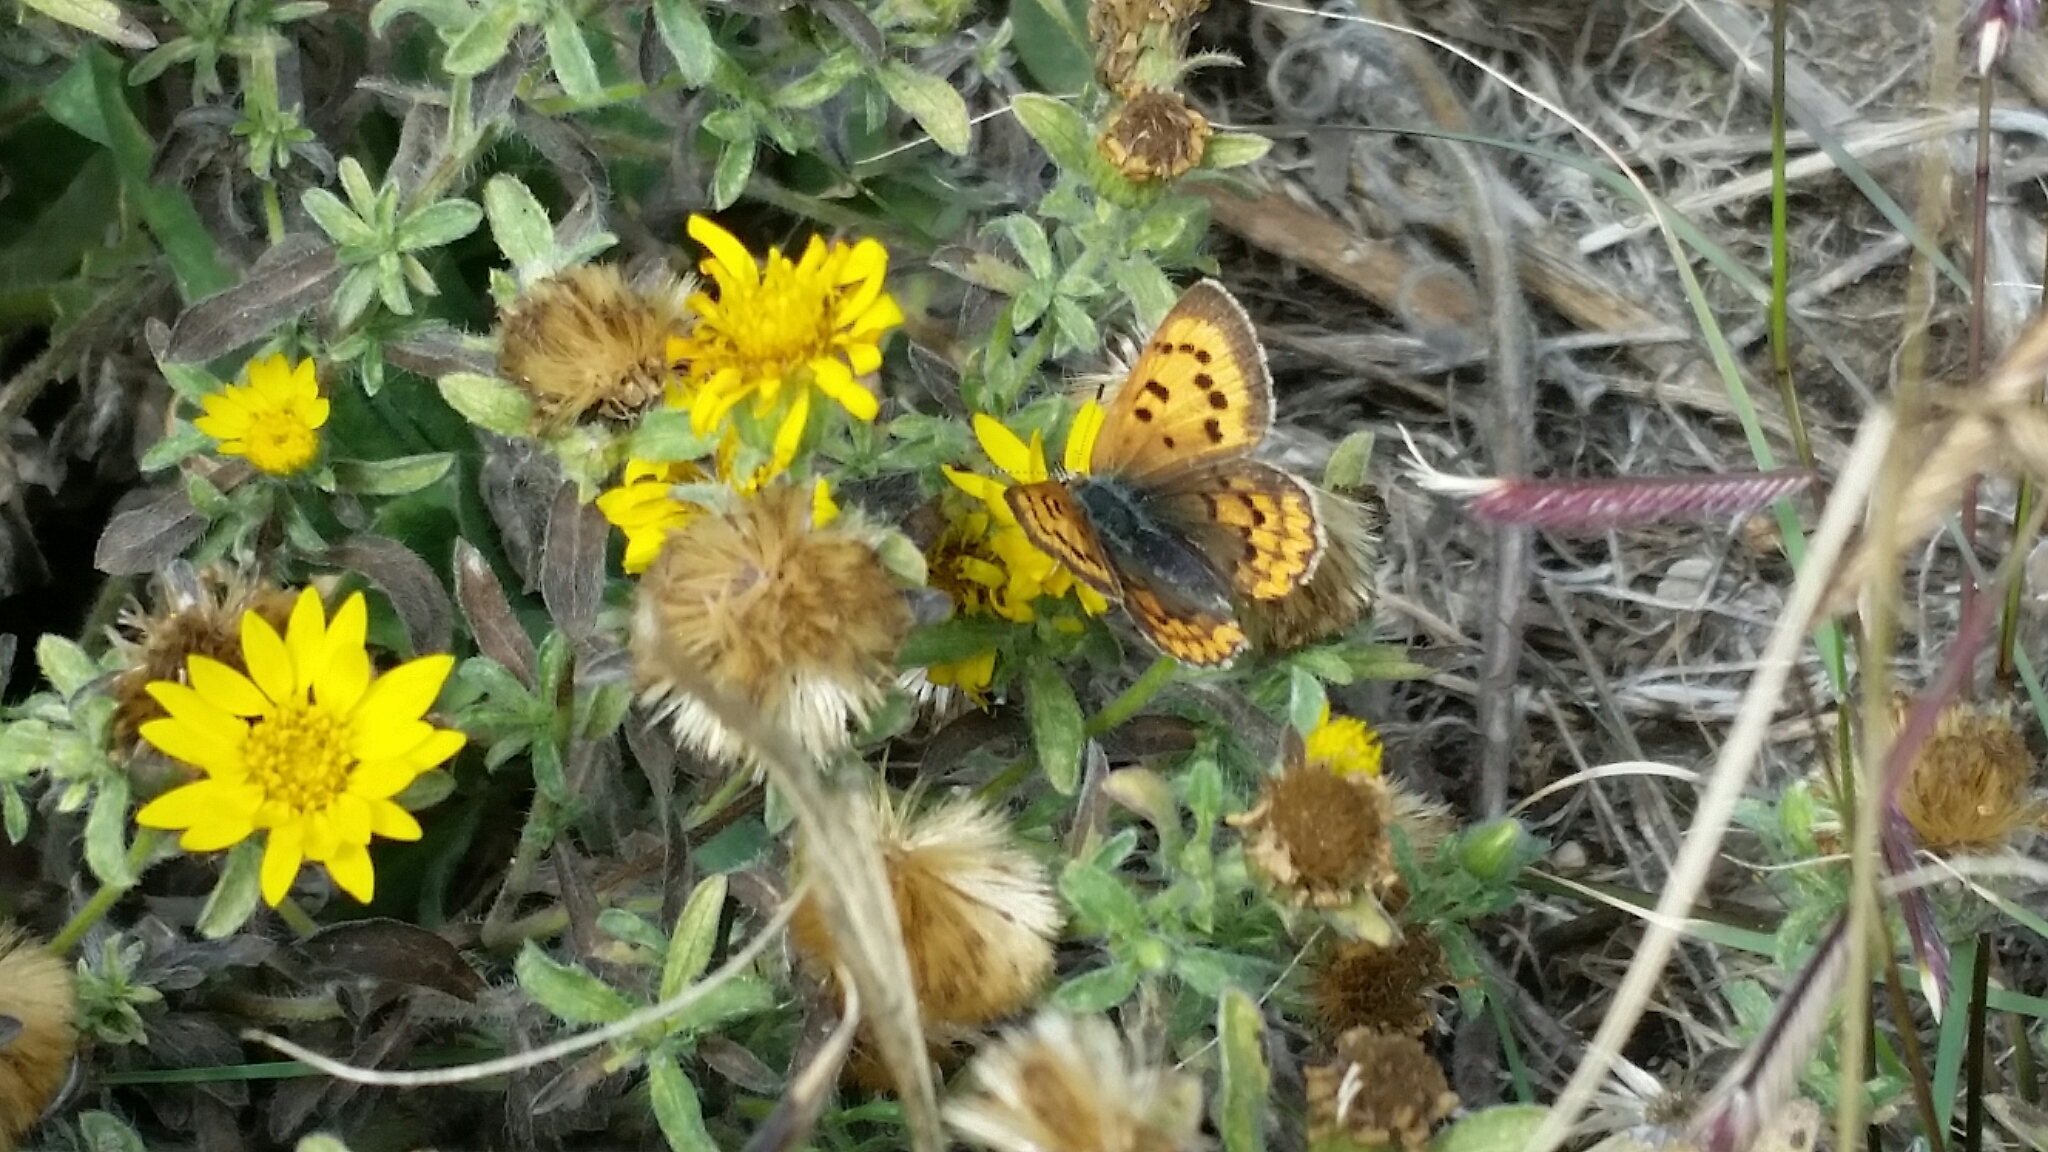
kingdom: Animalia
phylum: Arthropoda
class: Insecta
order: Lepidoptera
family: Lycaenidae
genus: Tharsalea
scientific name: Tharsalea helloides
